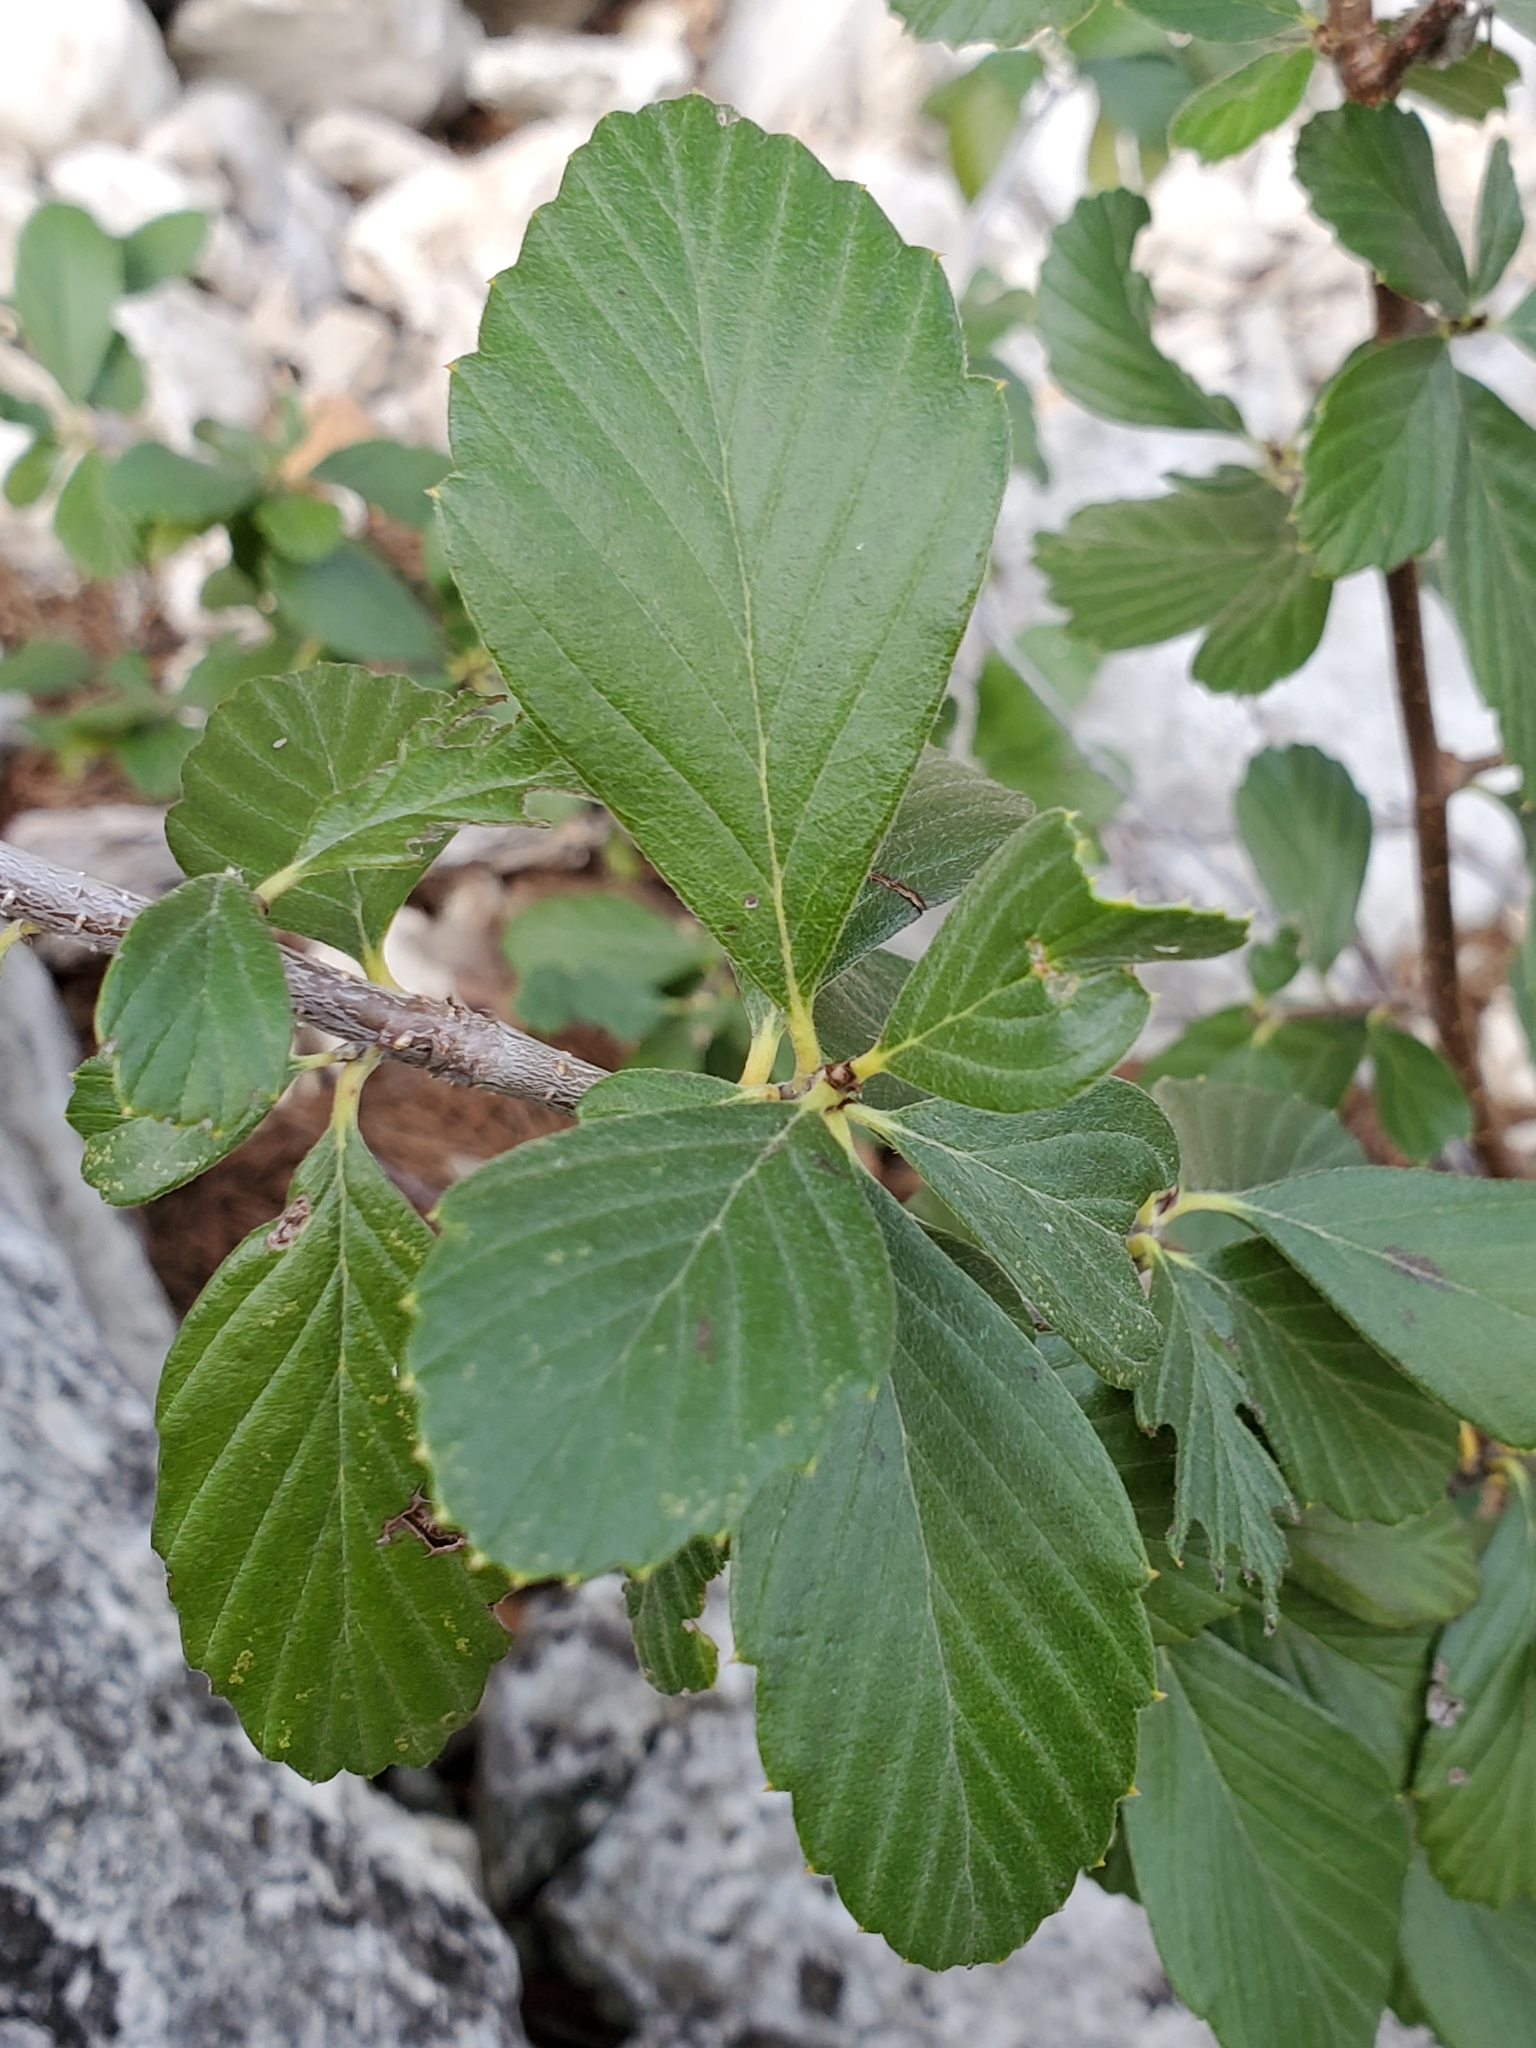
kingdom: Plantae
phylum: Tracheophyta
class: Magnoliopsida
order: Rosales
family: Rosaceae
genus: Cercocarpus
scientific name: Cercocarpus montanus
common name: Alder-leaf cercocarpus
